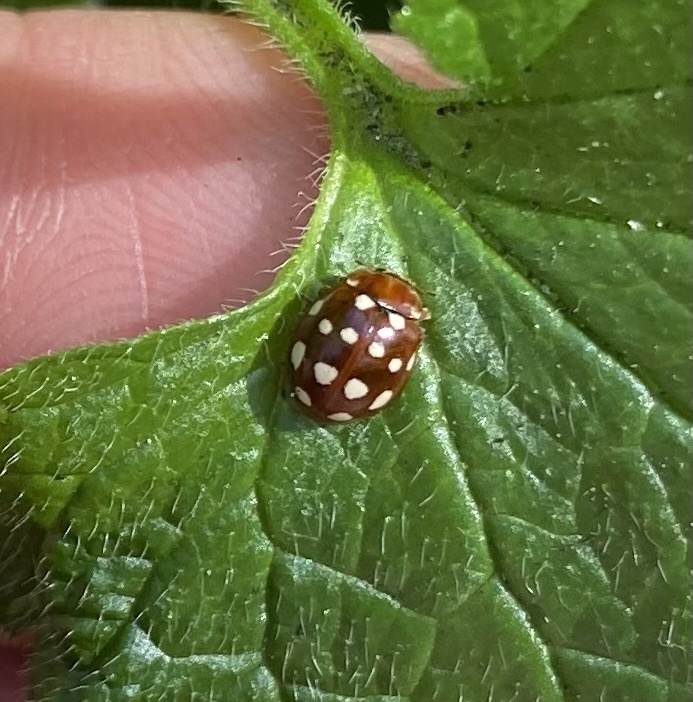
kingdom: Animalia
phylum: Arthropoda
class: Insecta
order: Coleoptera
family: Coccinellidae
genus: Calvia
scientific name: Calvia quatuordecimguttata
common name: Cream-spot ladybird
